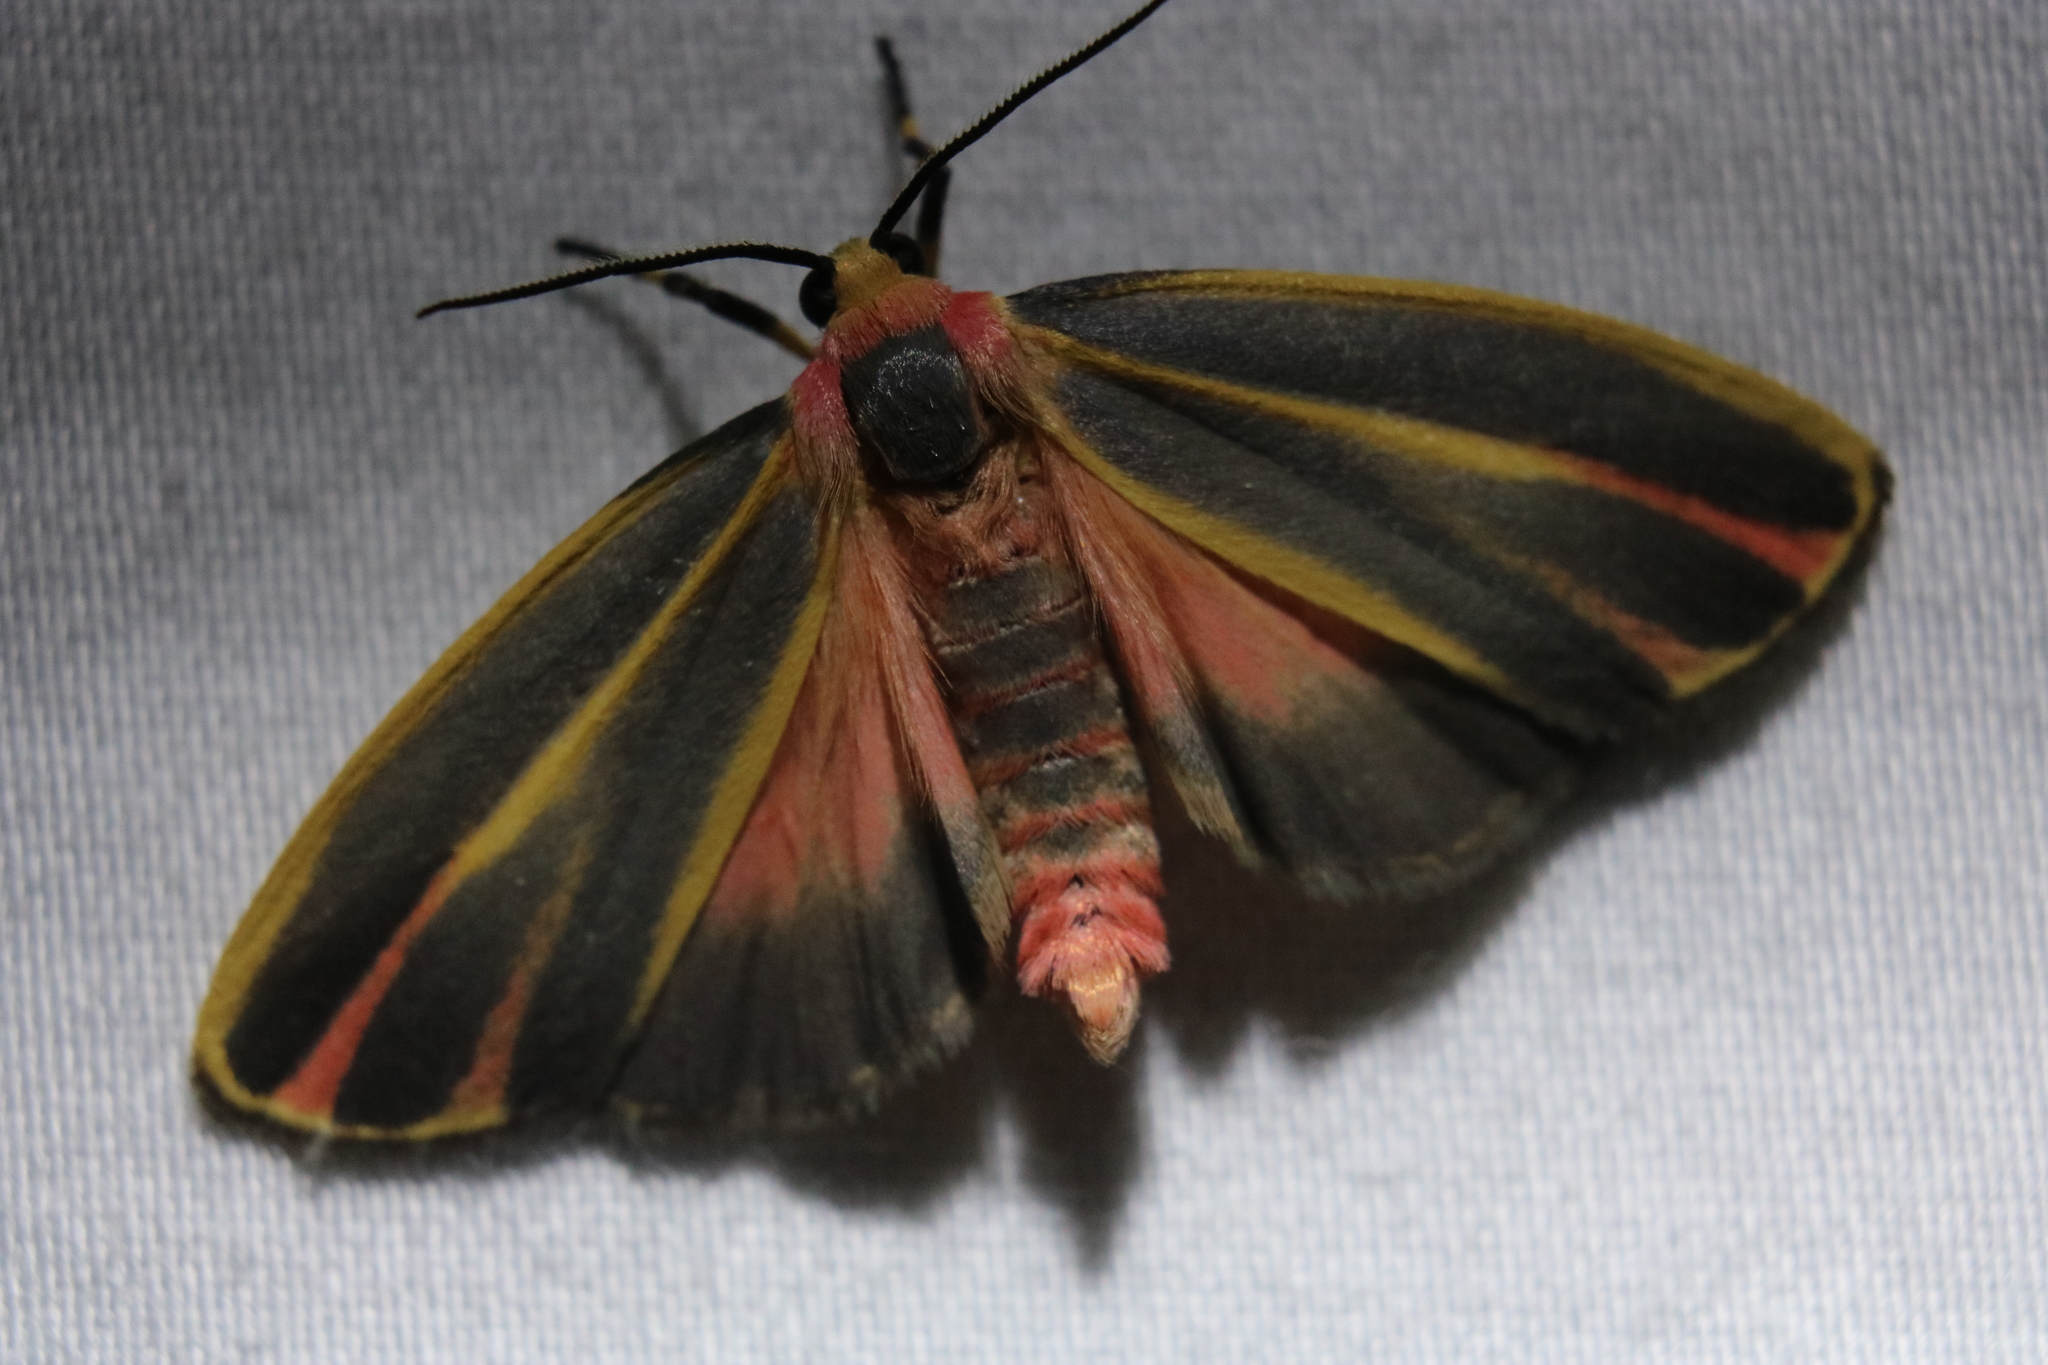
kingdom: Animalia
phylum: Arthropoda
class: Insecta
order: Lepidoptera
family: Erebidae
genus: Hypoprepia
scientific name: Hypoprepia fucosa
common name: Painted lichen moth
